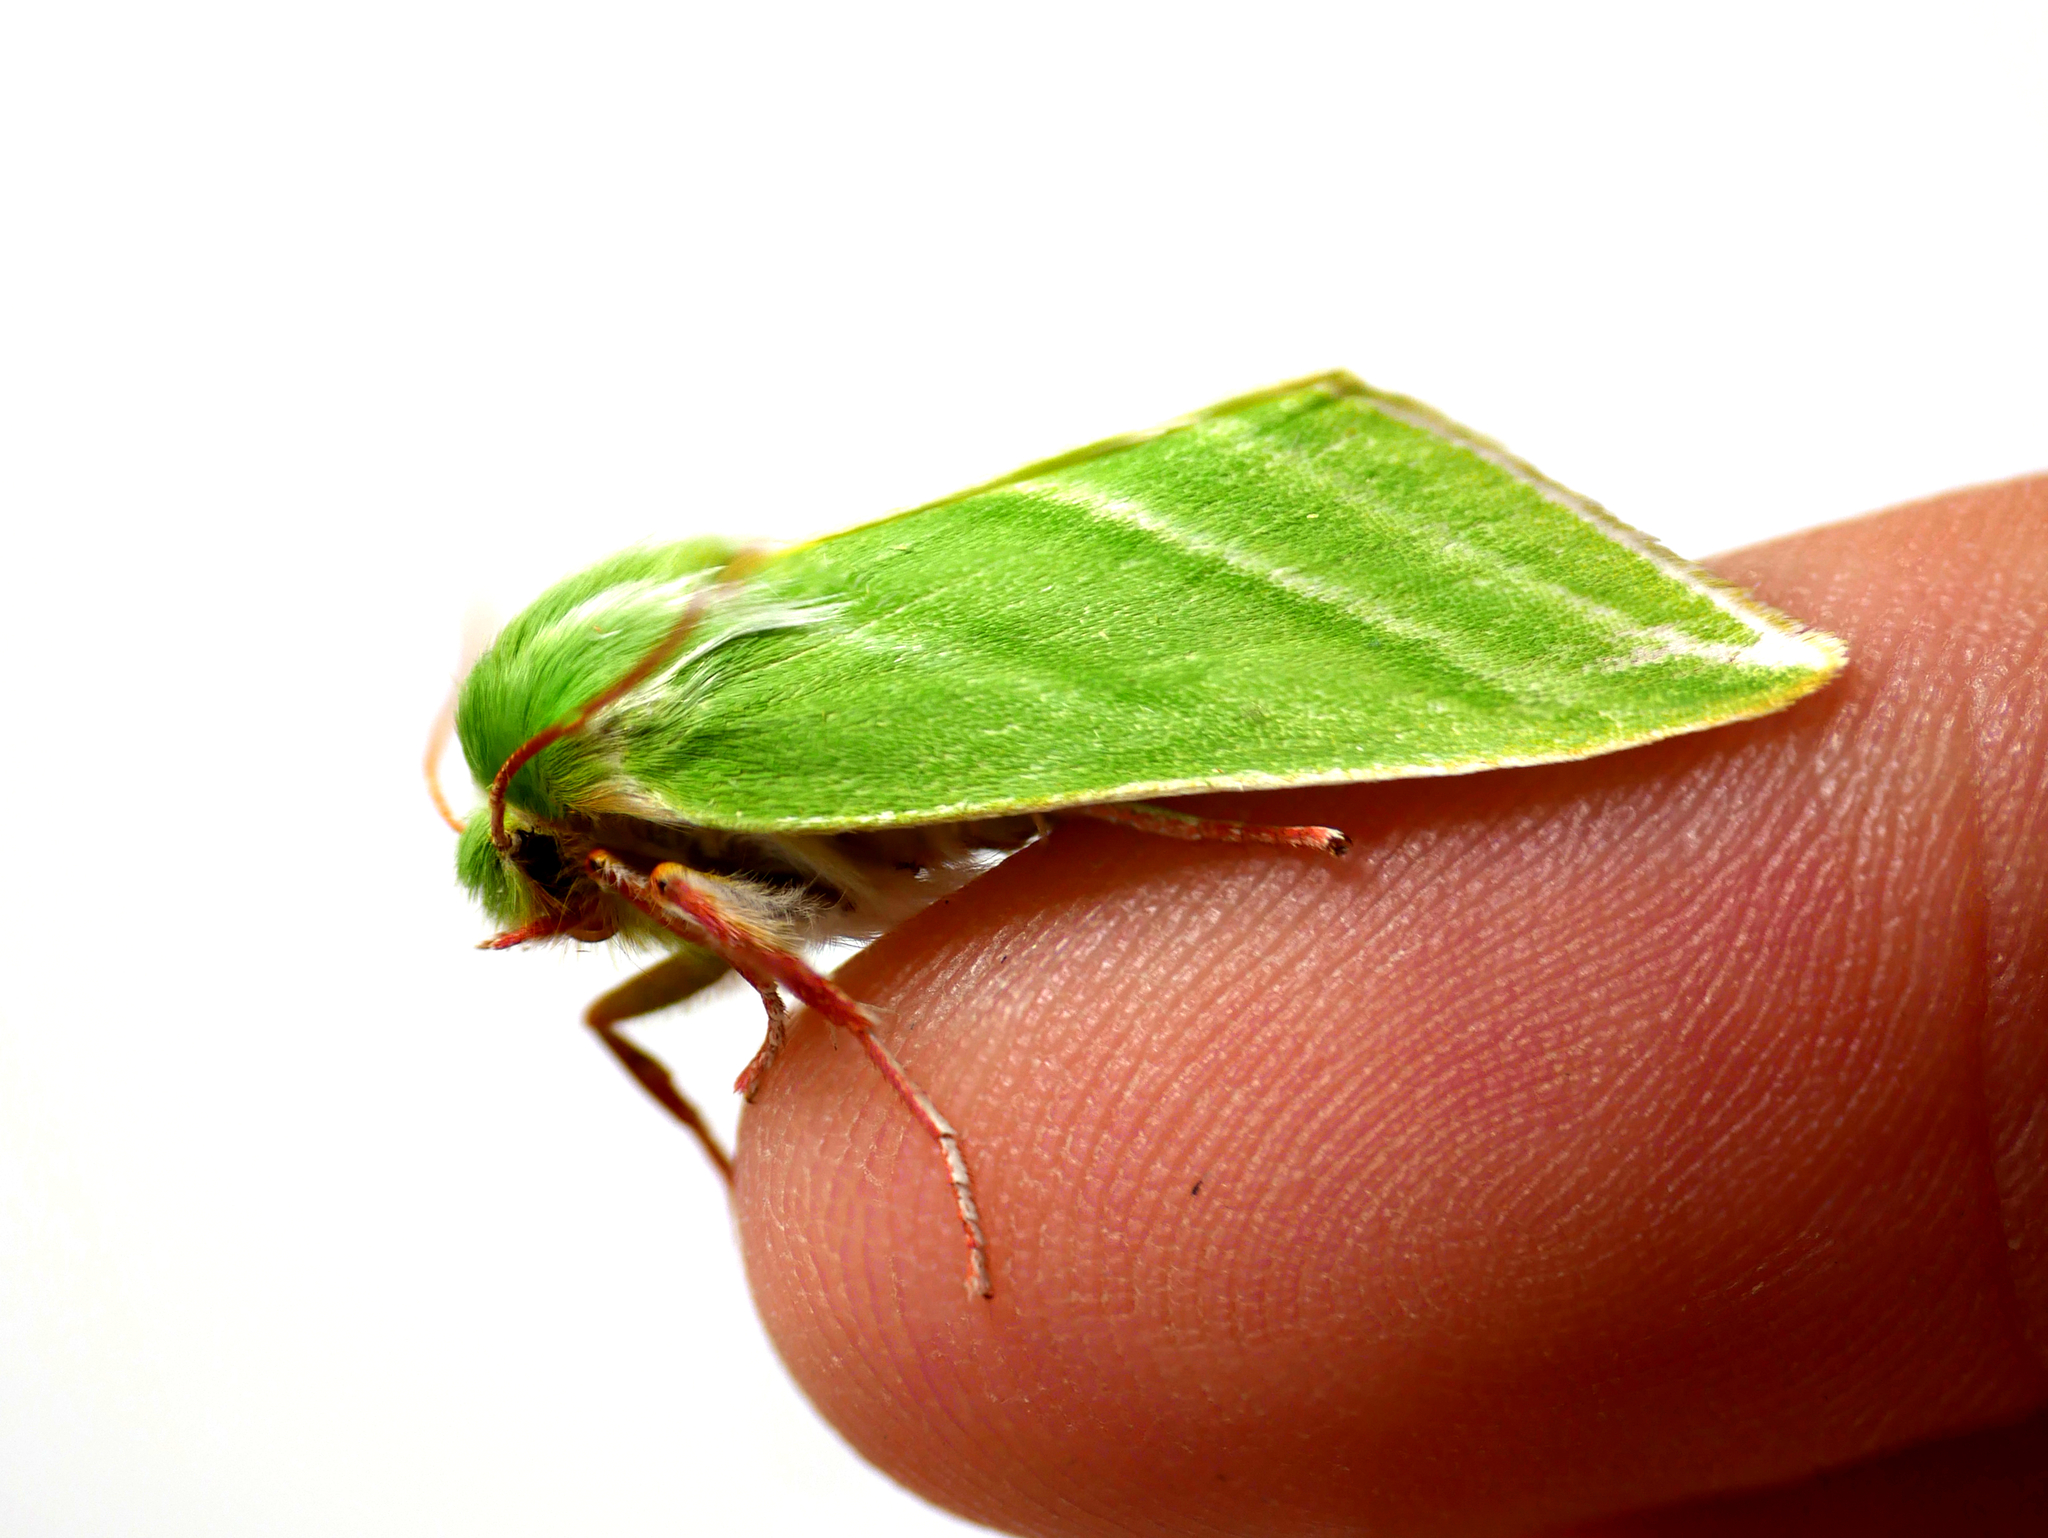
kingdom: Animalia
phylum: Arthropoda
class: Insecta
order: Lepidoptera
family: Nolidae
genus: Pseudoips
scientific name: Pseudoips prasinana
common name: Green silver-lines
